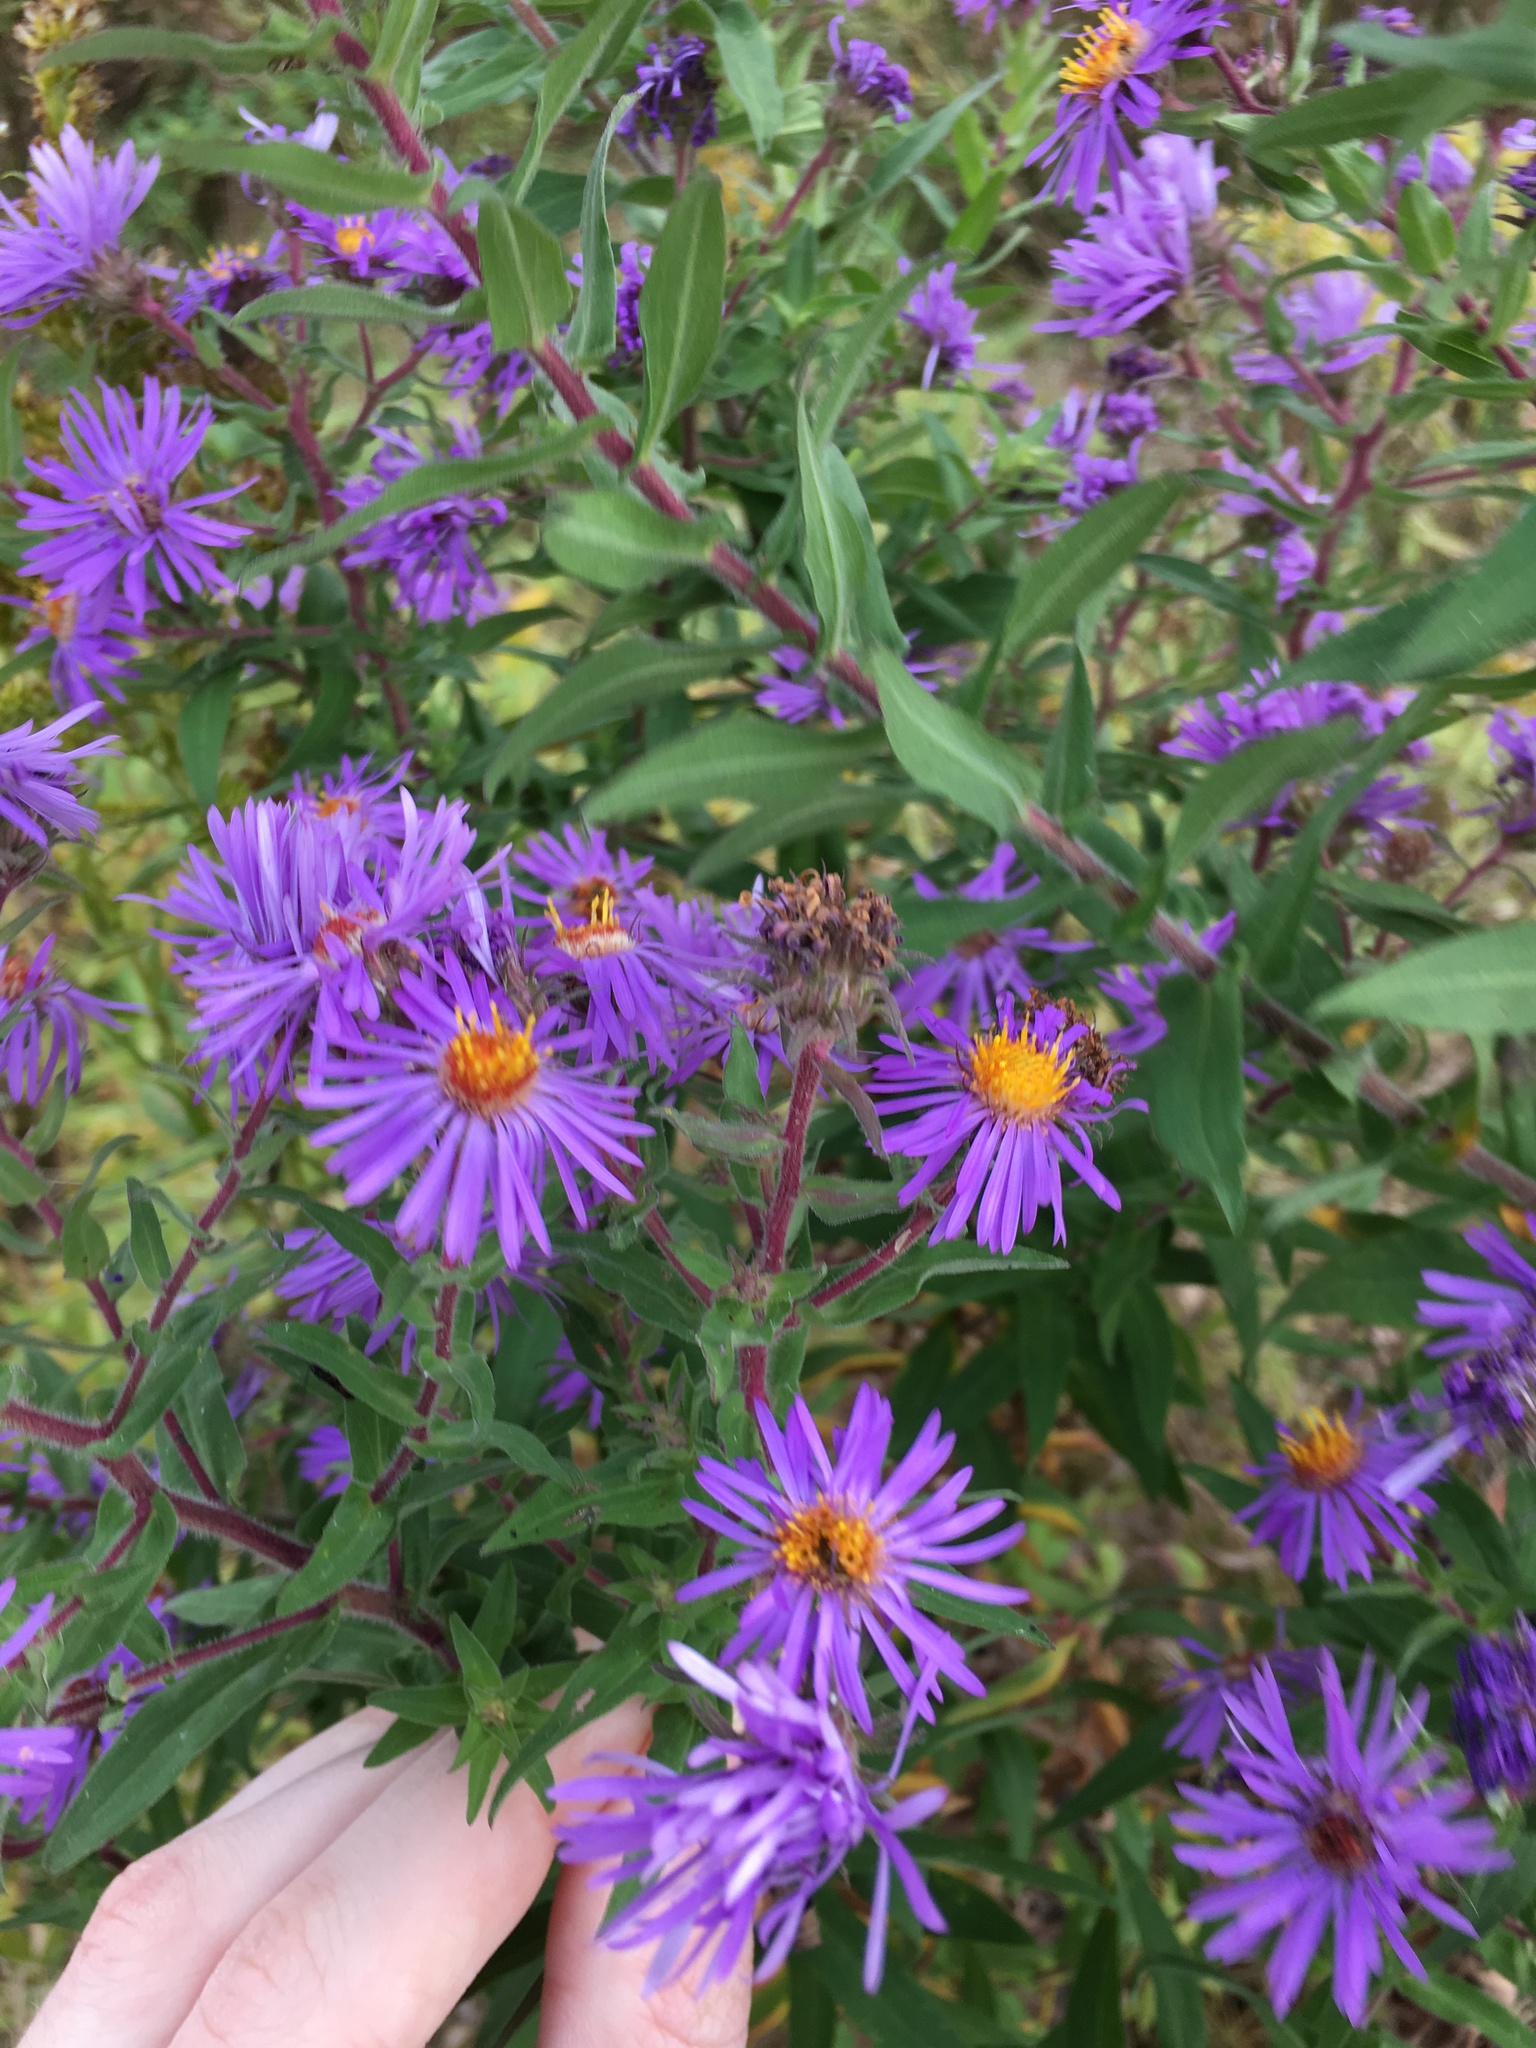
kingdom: Plantae
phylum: Tracheophyta
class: Magnoliopsida
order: Asterales
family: Asteraceae
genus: Symphyotrichum
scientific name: Symphyotrichum novae-angliae
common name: Michaelmas daisy
